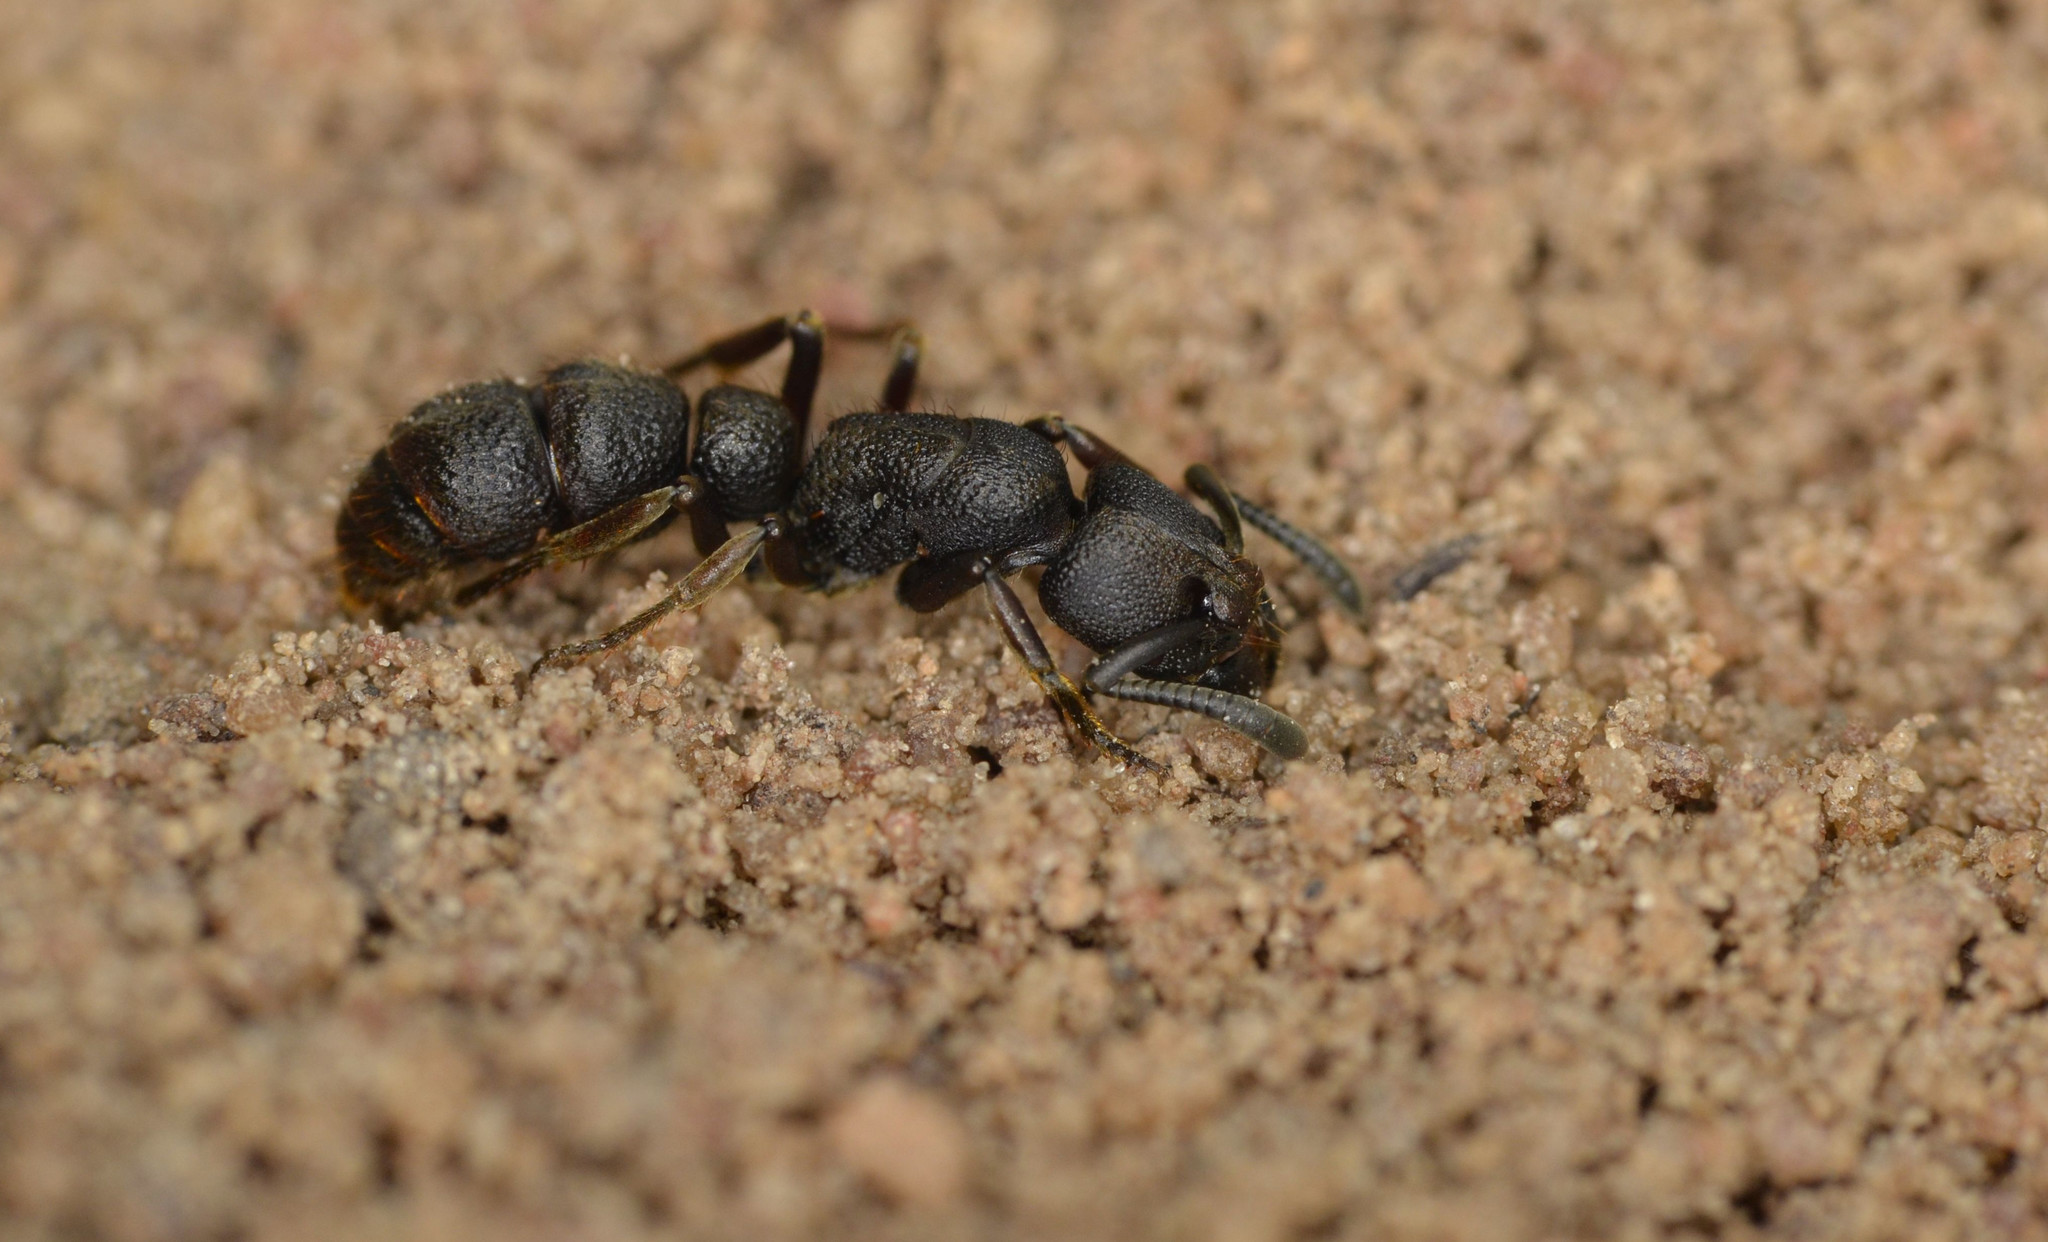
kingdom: Animalia
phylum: Arthropoda
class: Insecta
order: Hymenoptera
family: Formicidae
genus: Pachycondyla
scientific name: Pachycondyla pachyderma
